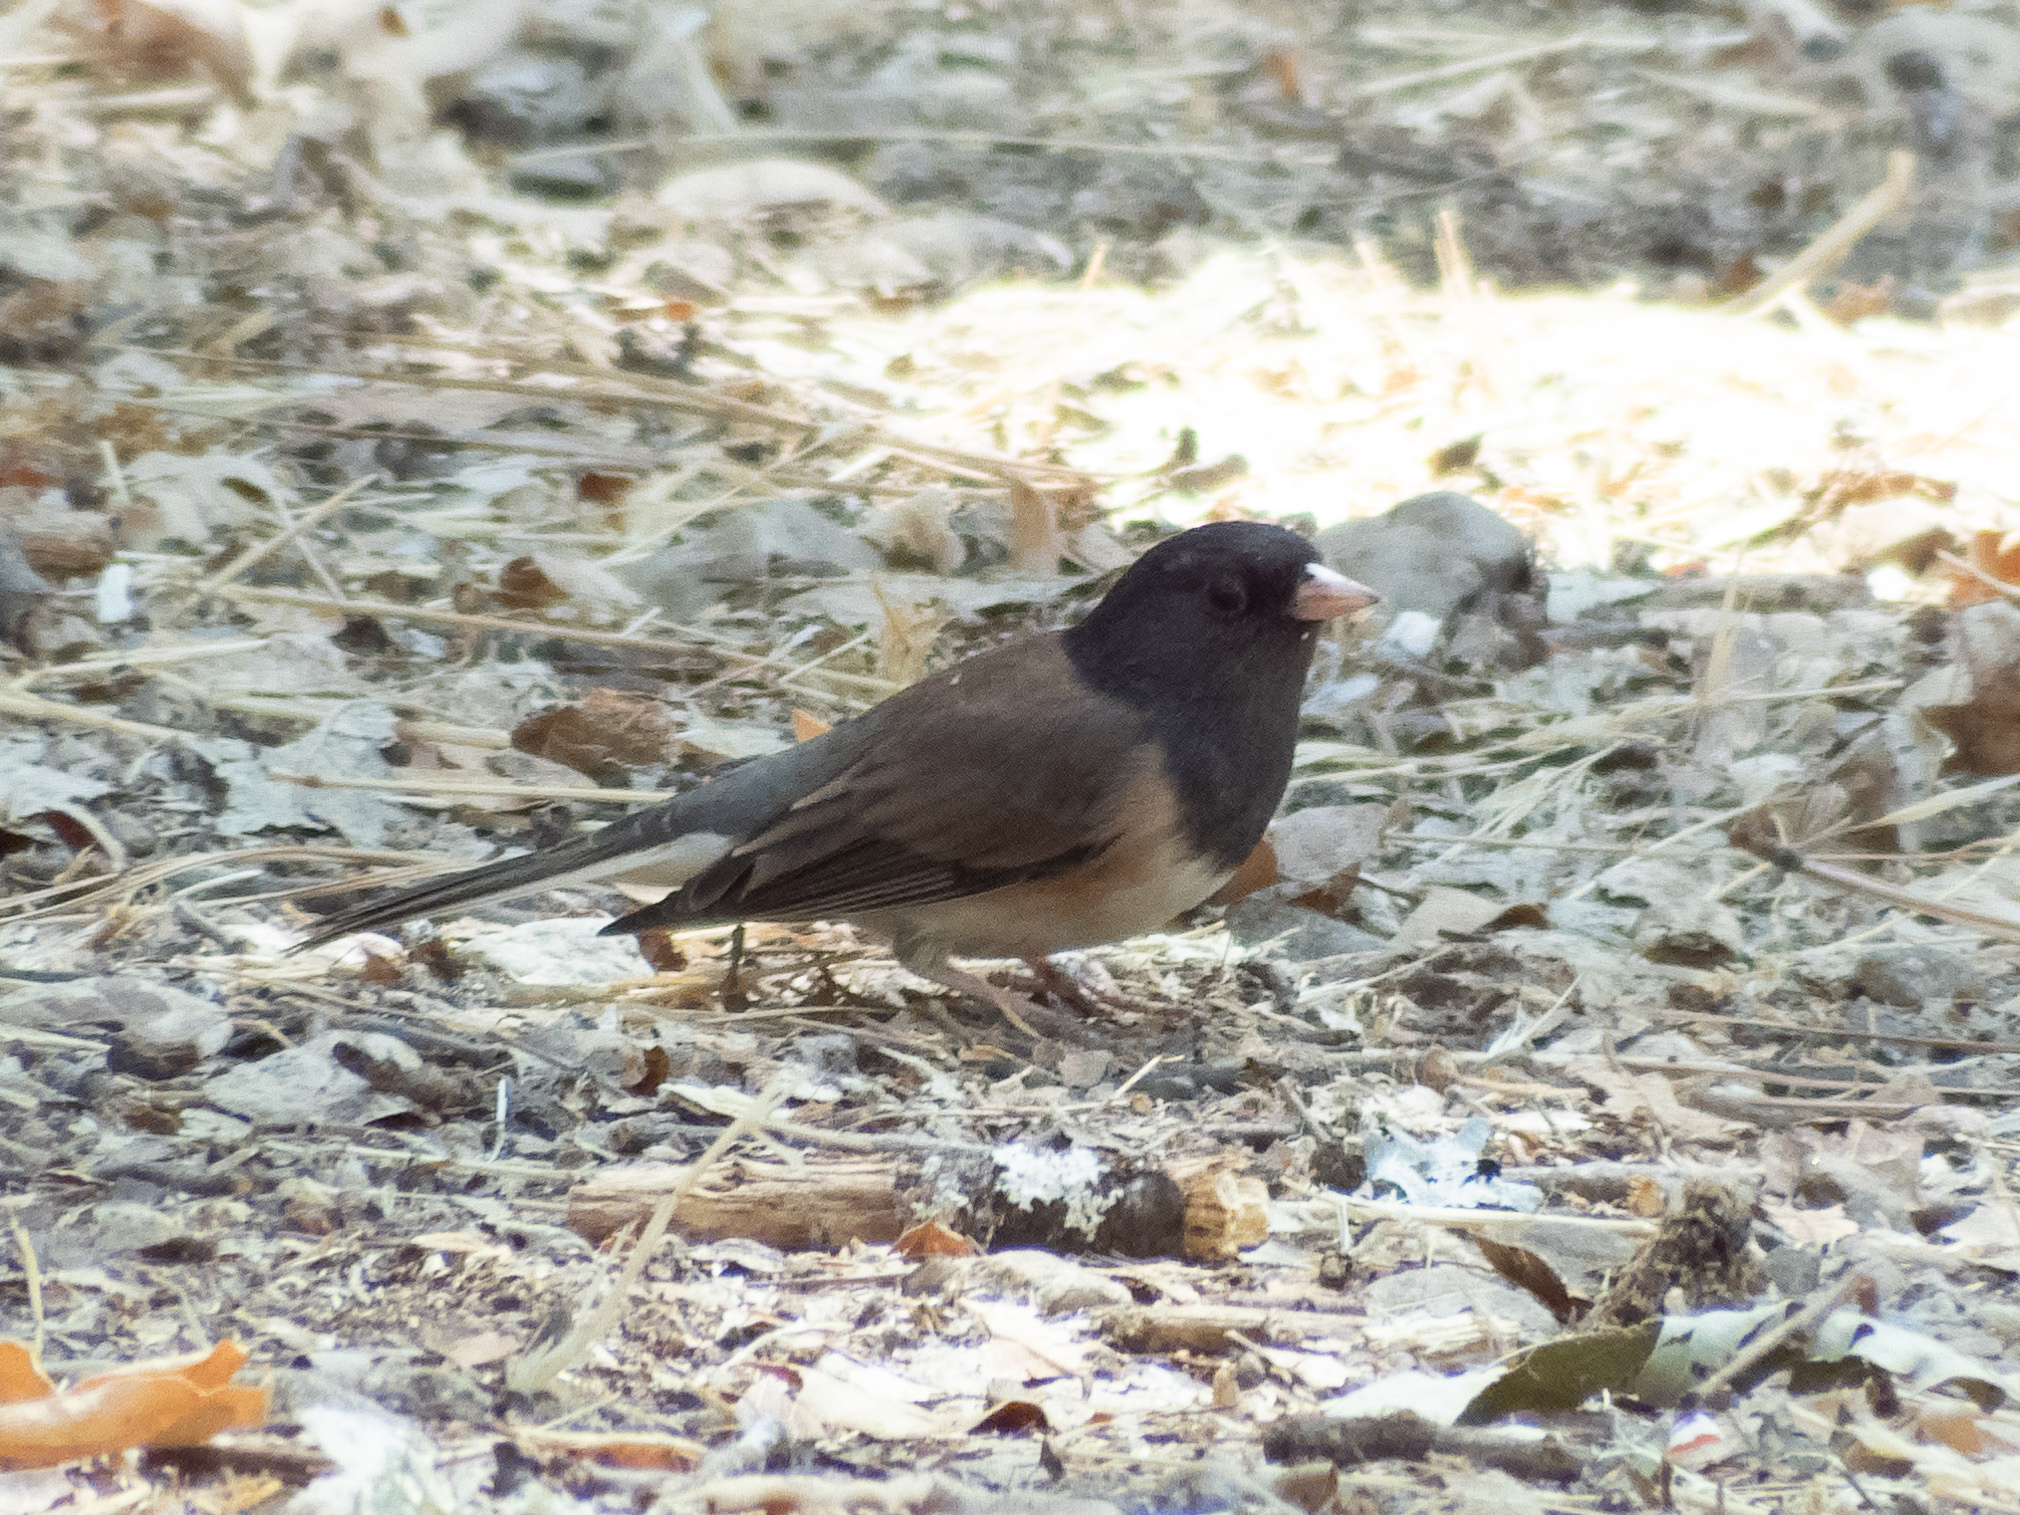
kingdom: Animalia
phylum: Chordata
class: Aves
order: Passeriformes
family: Passerellidae
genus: Junco
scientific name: Junco hyemalis
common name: Dark-eyed junco
